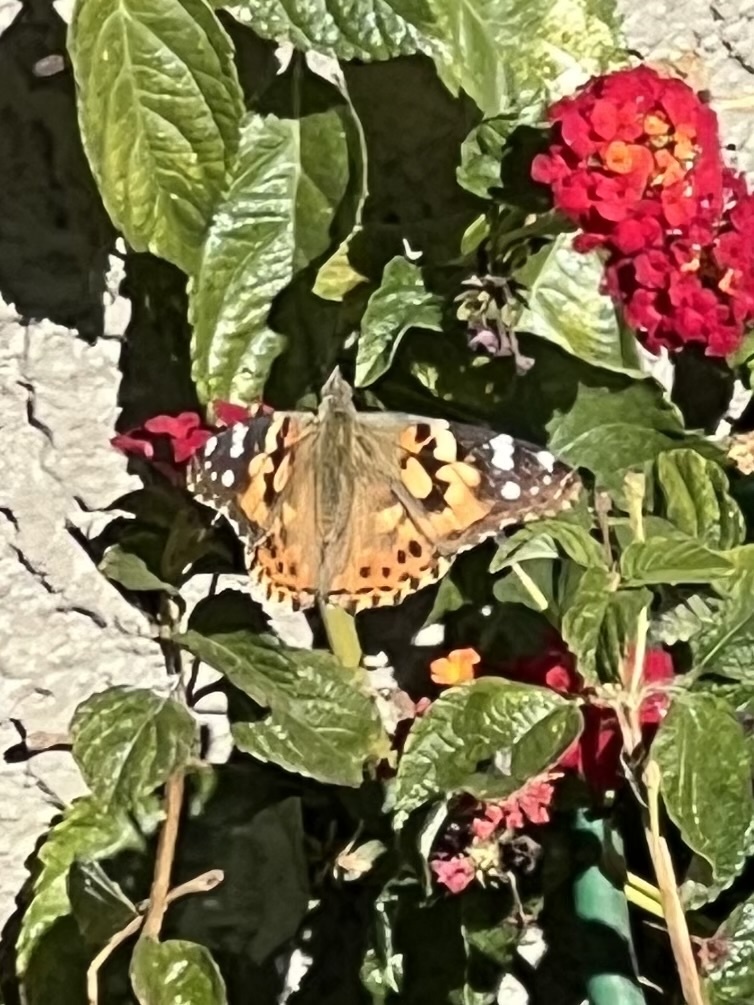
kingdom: Animalia
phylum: Arthropoda
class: Insecta
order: Lepidoptera
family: Nymphalidae
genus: Vanessa
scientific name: Vanessa cardui
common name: Painted lady
